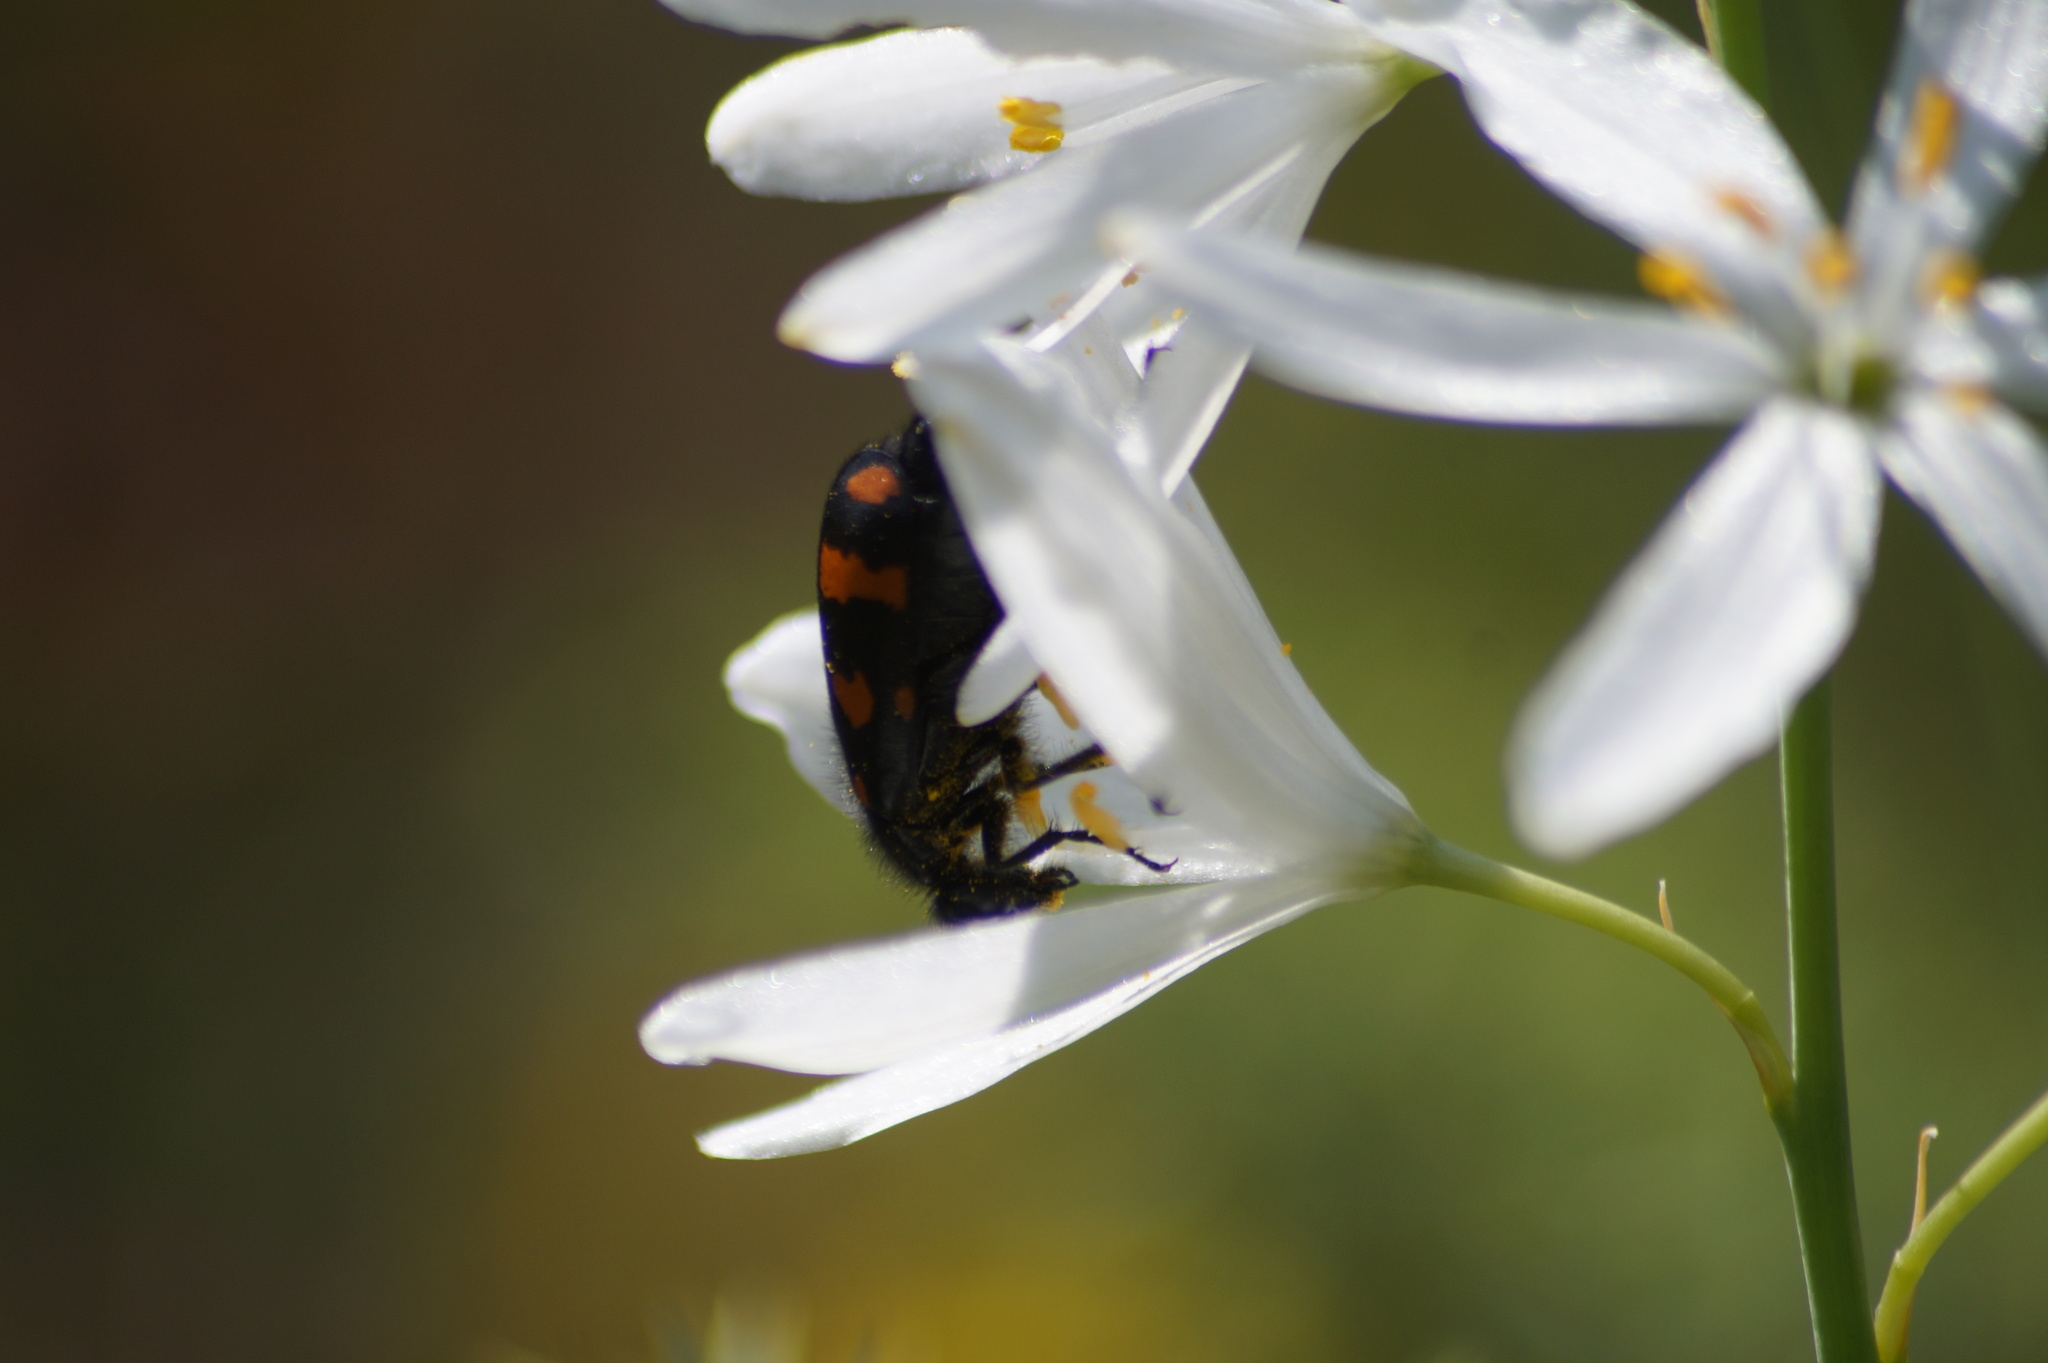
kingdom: Animalia
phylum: Arthropoda
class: Insecta
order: Coleoptera
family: Meloidae
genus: Hycleus
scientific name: Hycleus polymorphus
